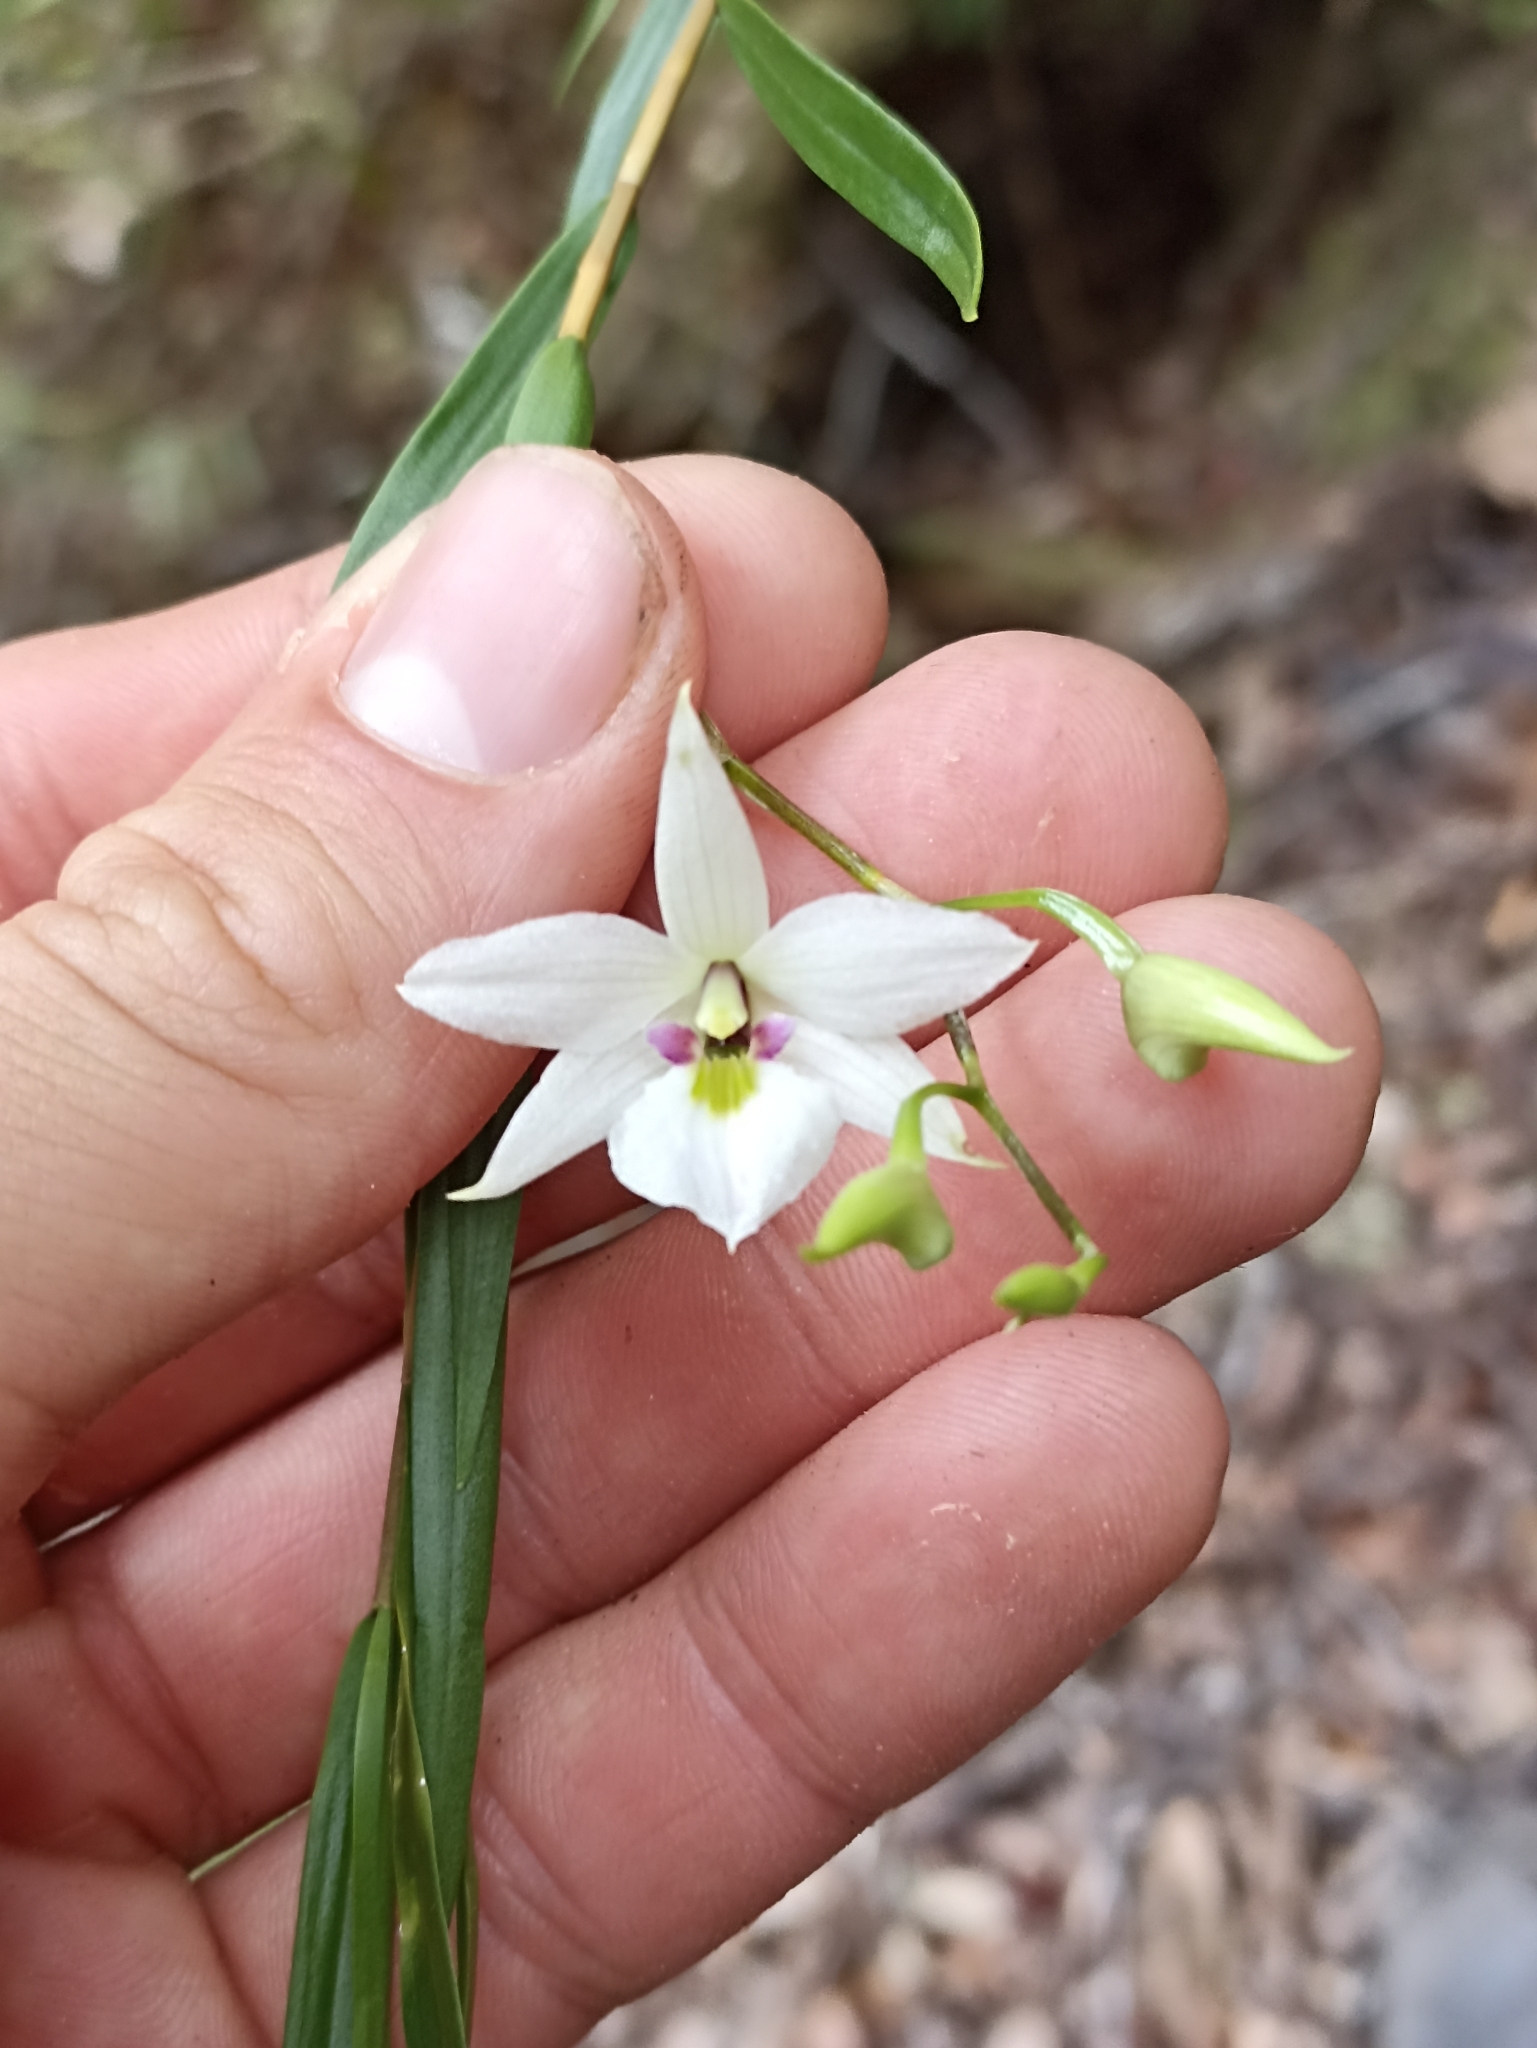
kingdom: Plantae
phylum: Tracheophyta
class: Liliopsida
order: Asparagales
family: Orchidaceae
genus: Dendrobium
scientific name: Dendrobium cunninghamii
